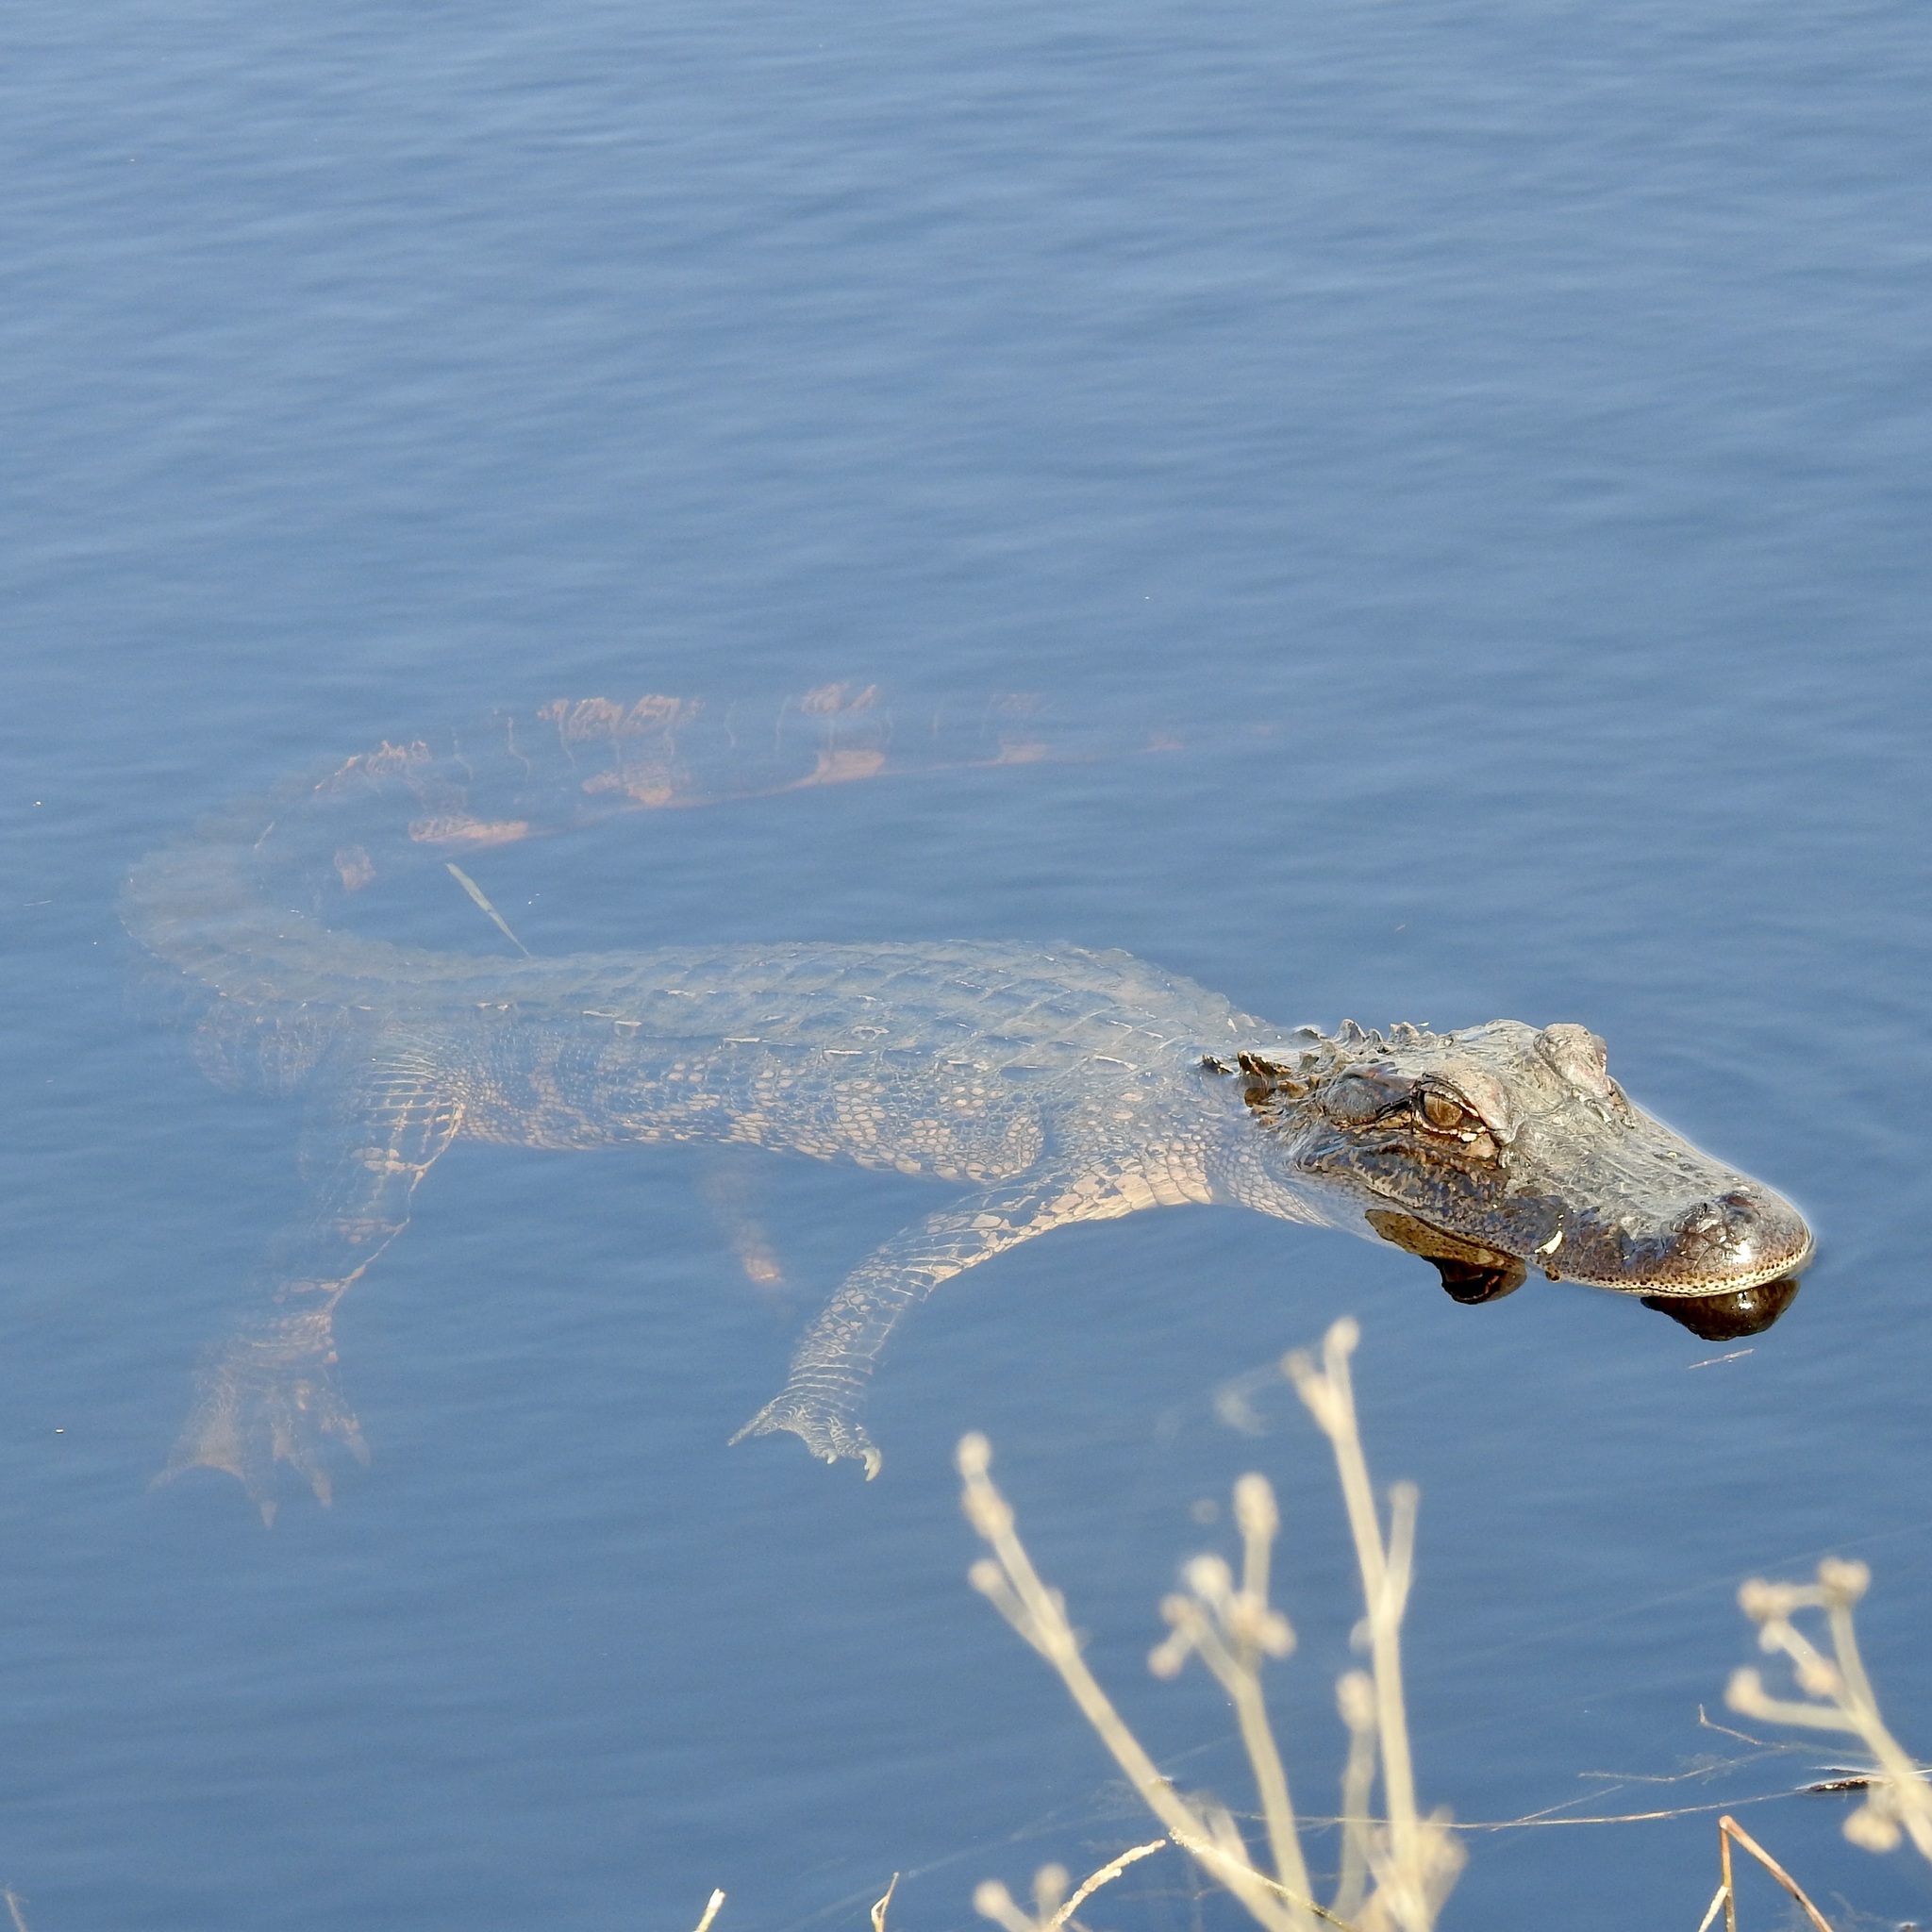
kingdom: Animalia
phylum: Chordata
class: Crocodylia
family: Alligatoridae
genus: Alligator
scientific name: Alligator mississippiensis
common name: American alligator
